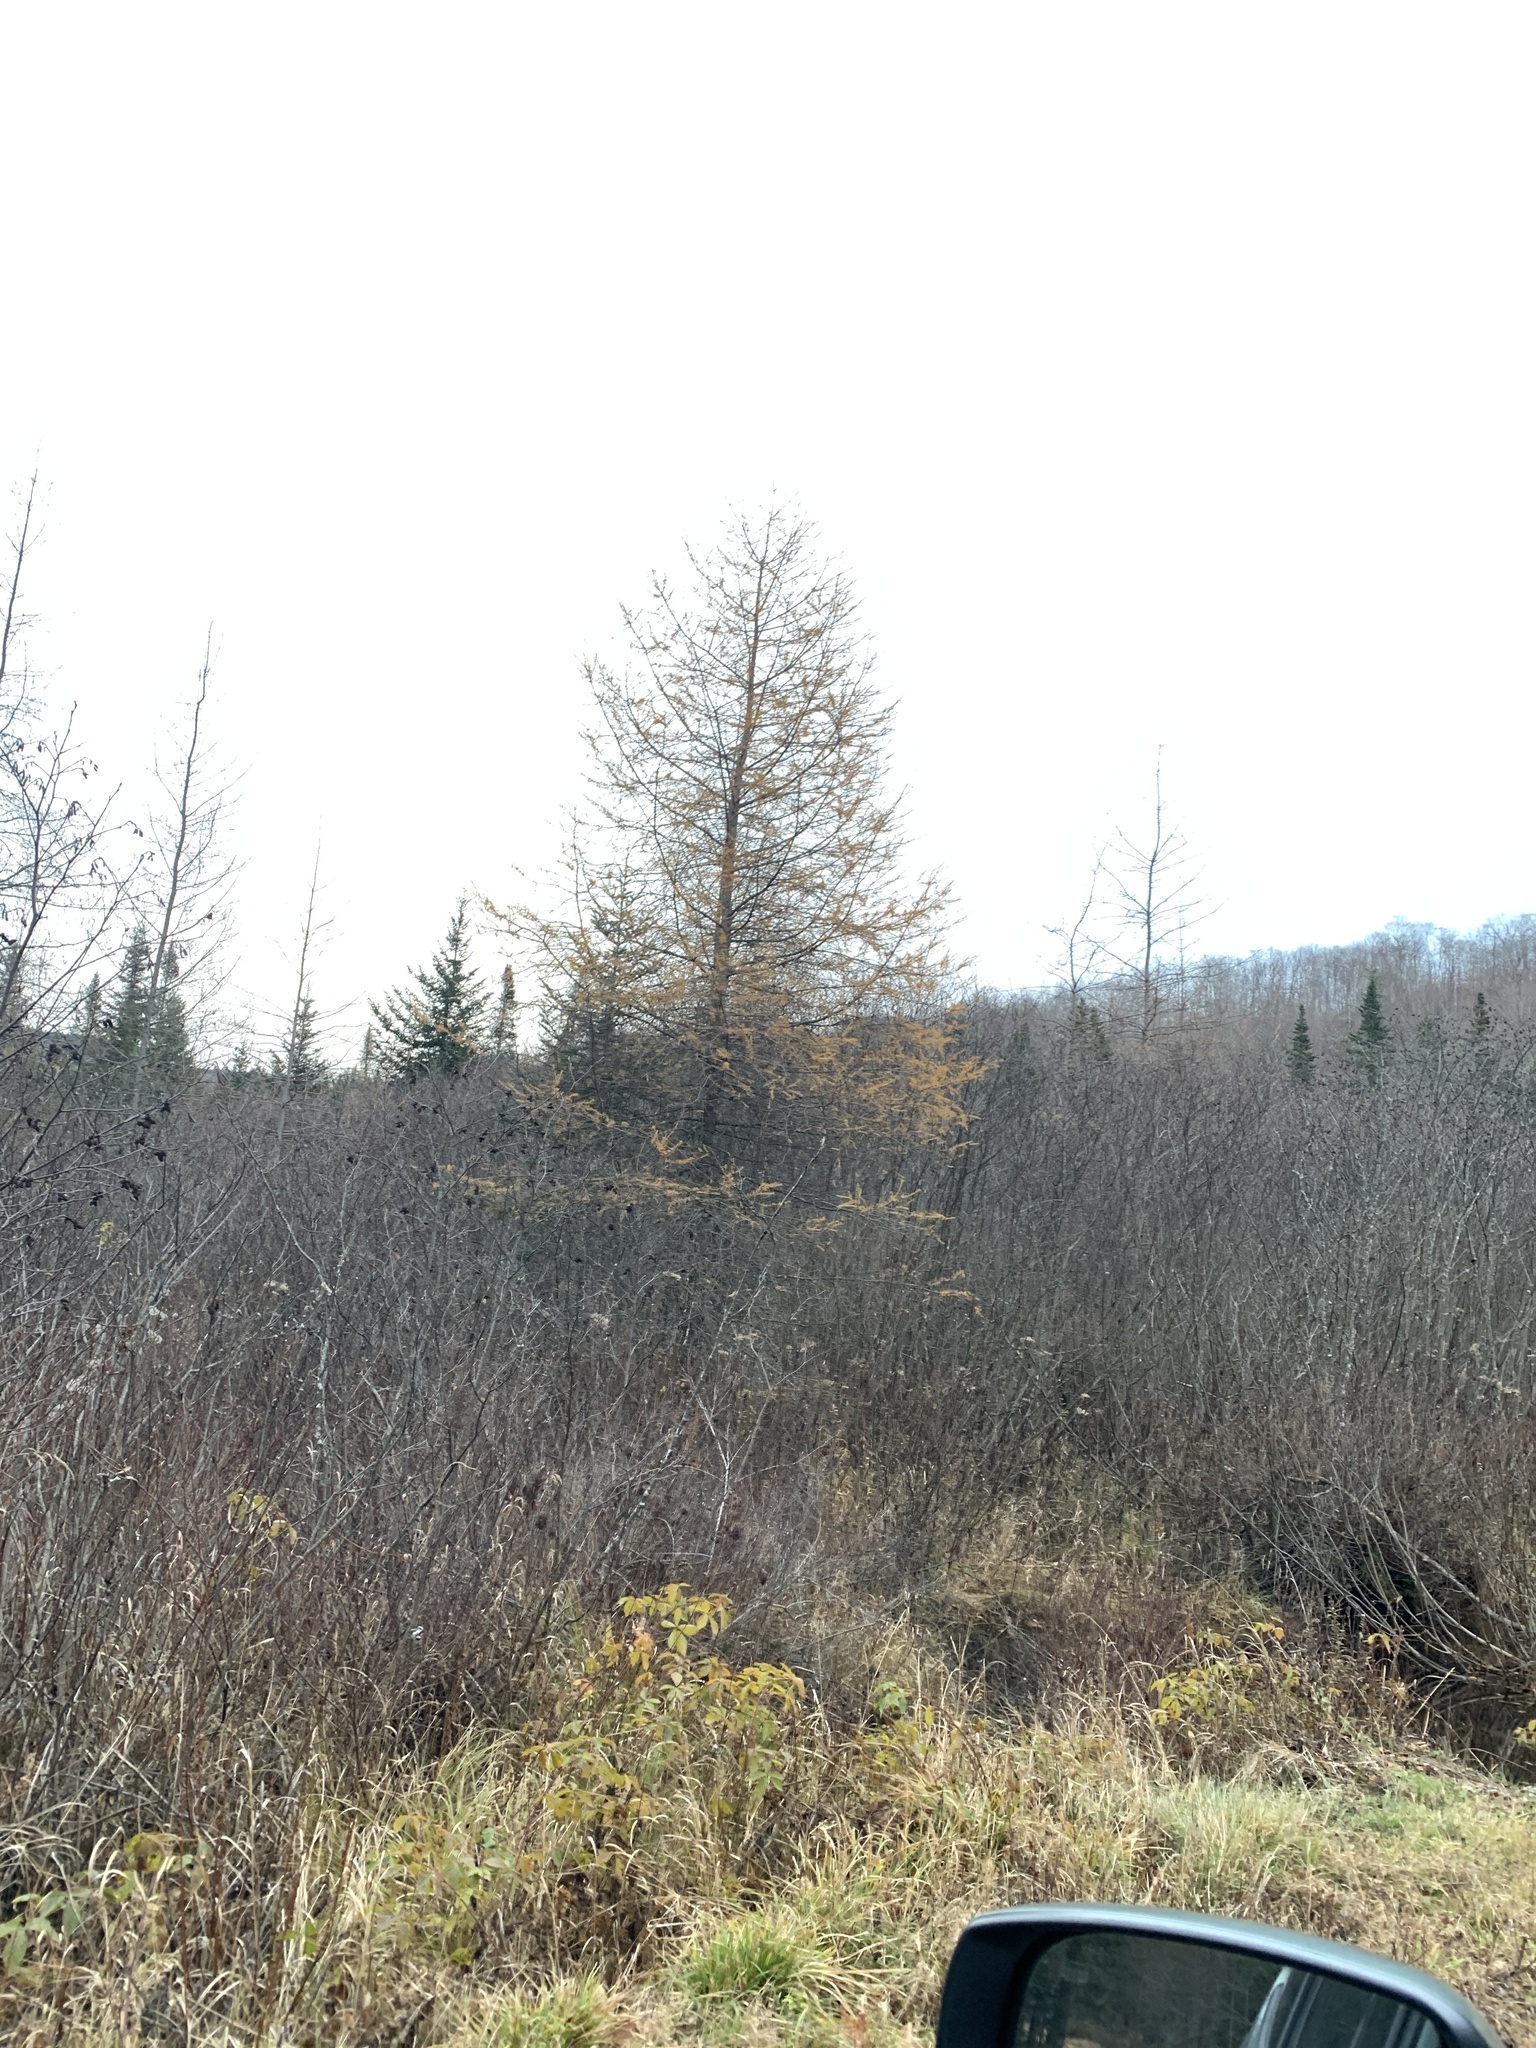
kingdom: Plantae
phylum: Tracheophyta
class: Pinopsida
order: Pinales
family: Pinaceae
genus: Larix
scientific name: Larix laricina
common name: American larch
